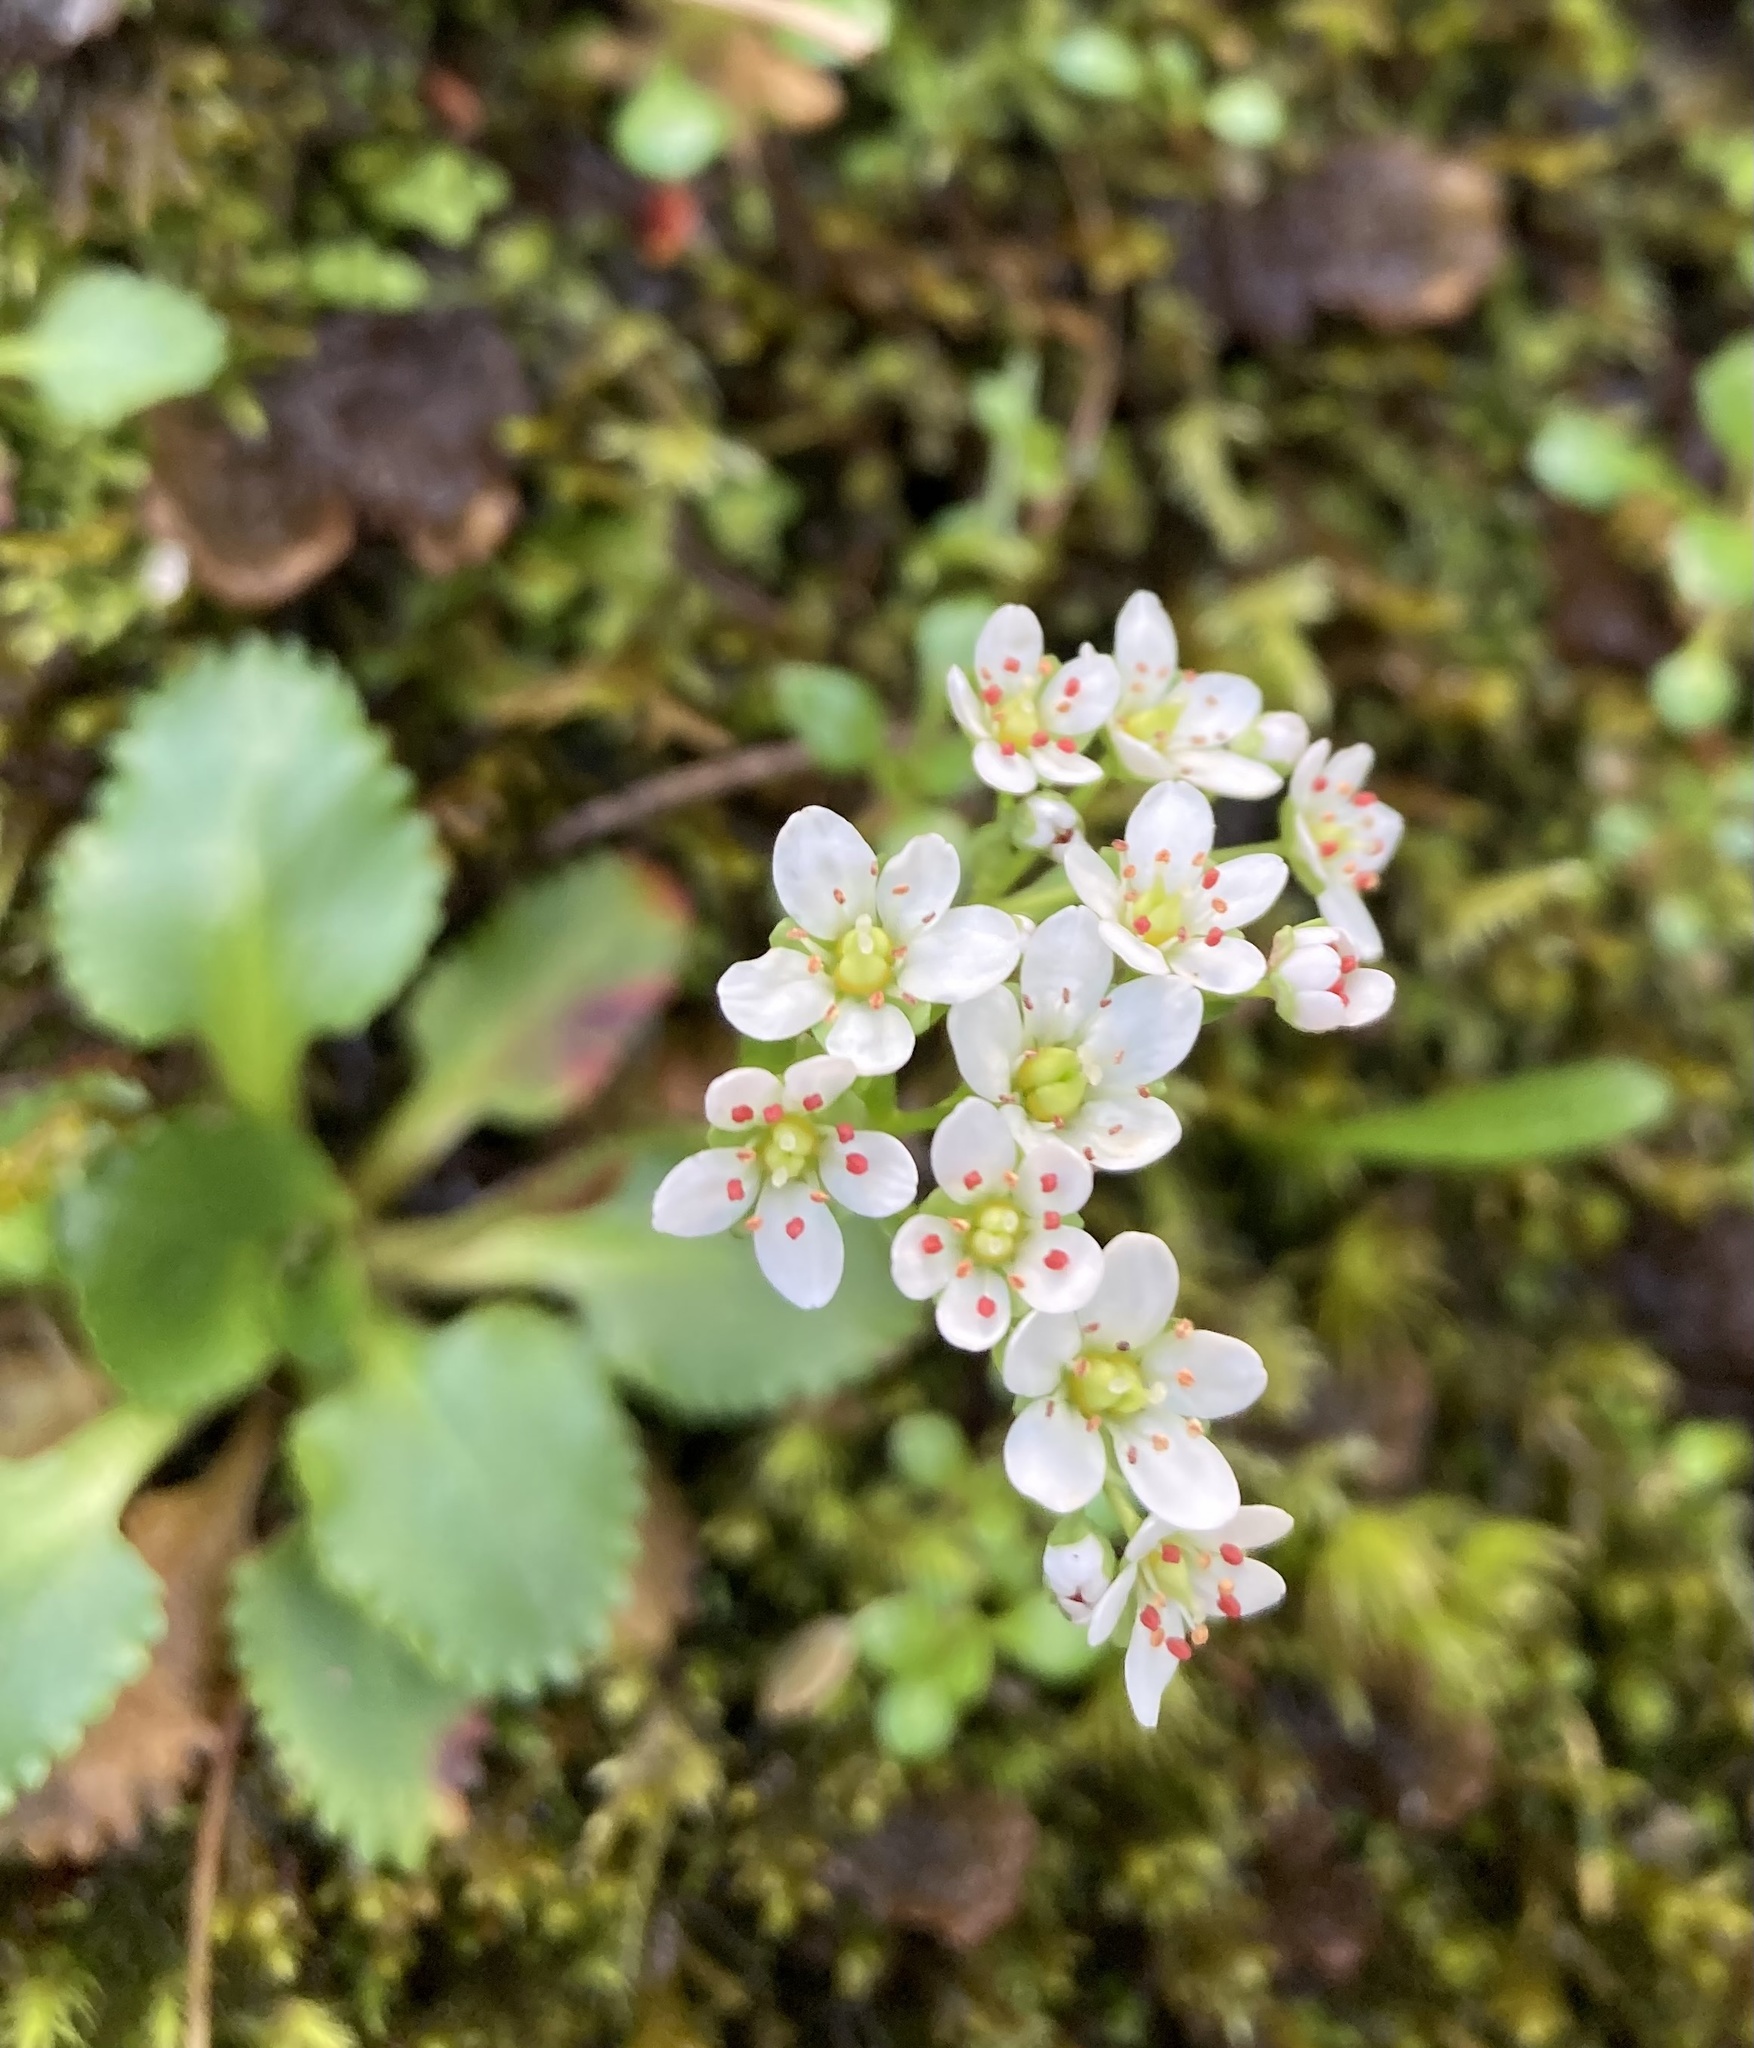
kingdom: Plantae
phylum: Tracheophyta
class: Magnoliopsida
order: Saxifragales
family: Saxifragaceae
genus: Micranthes
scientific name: Micranthes rufidula
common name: Rustyhair saxifrage
